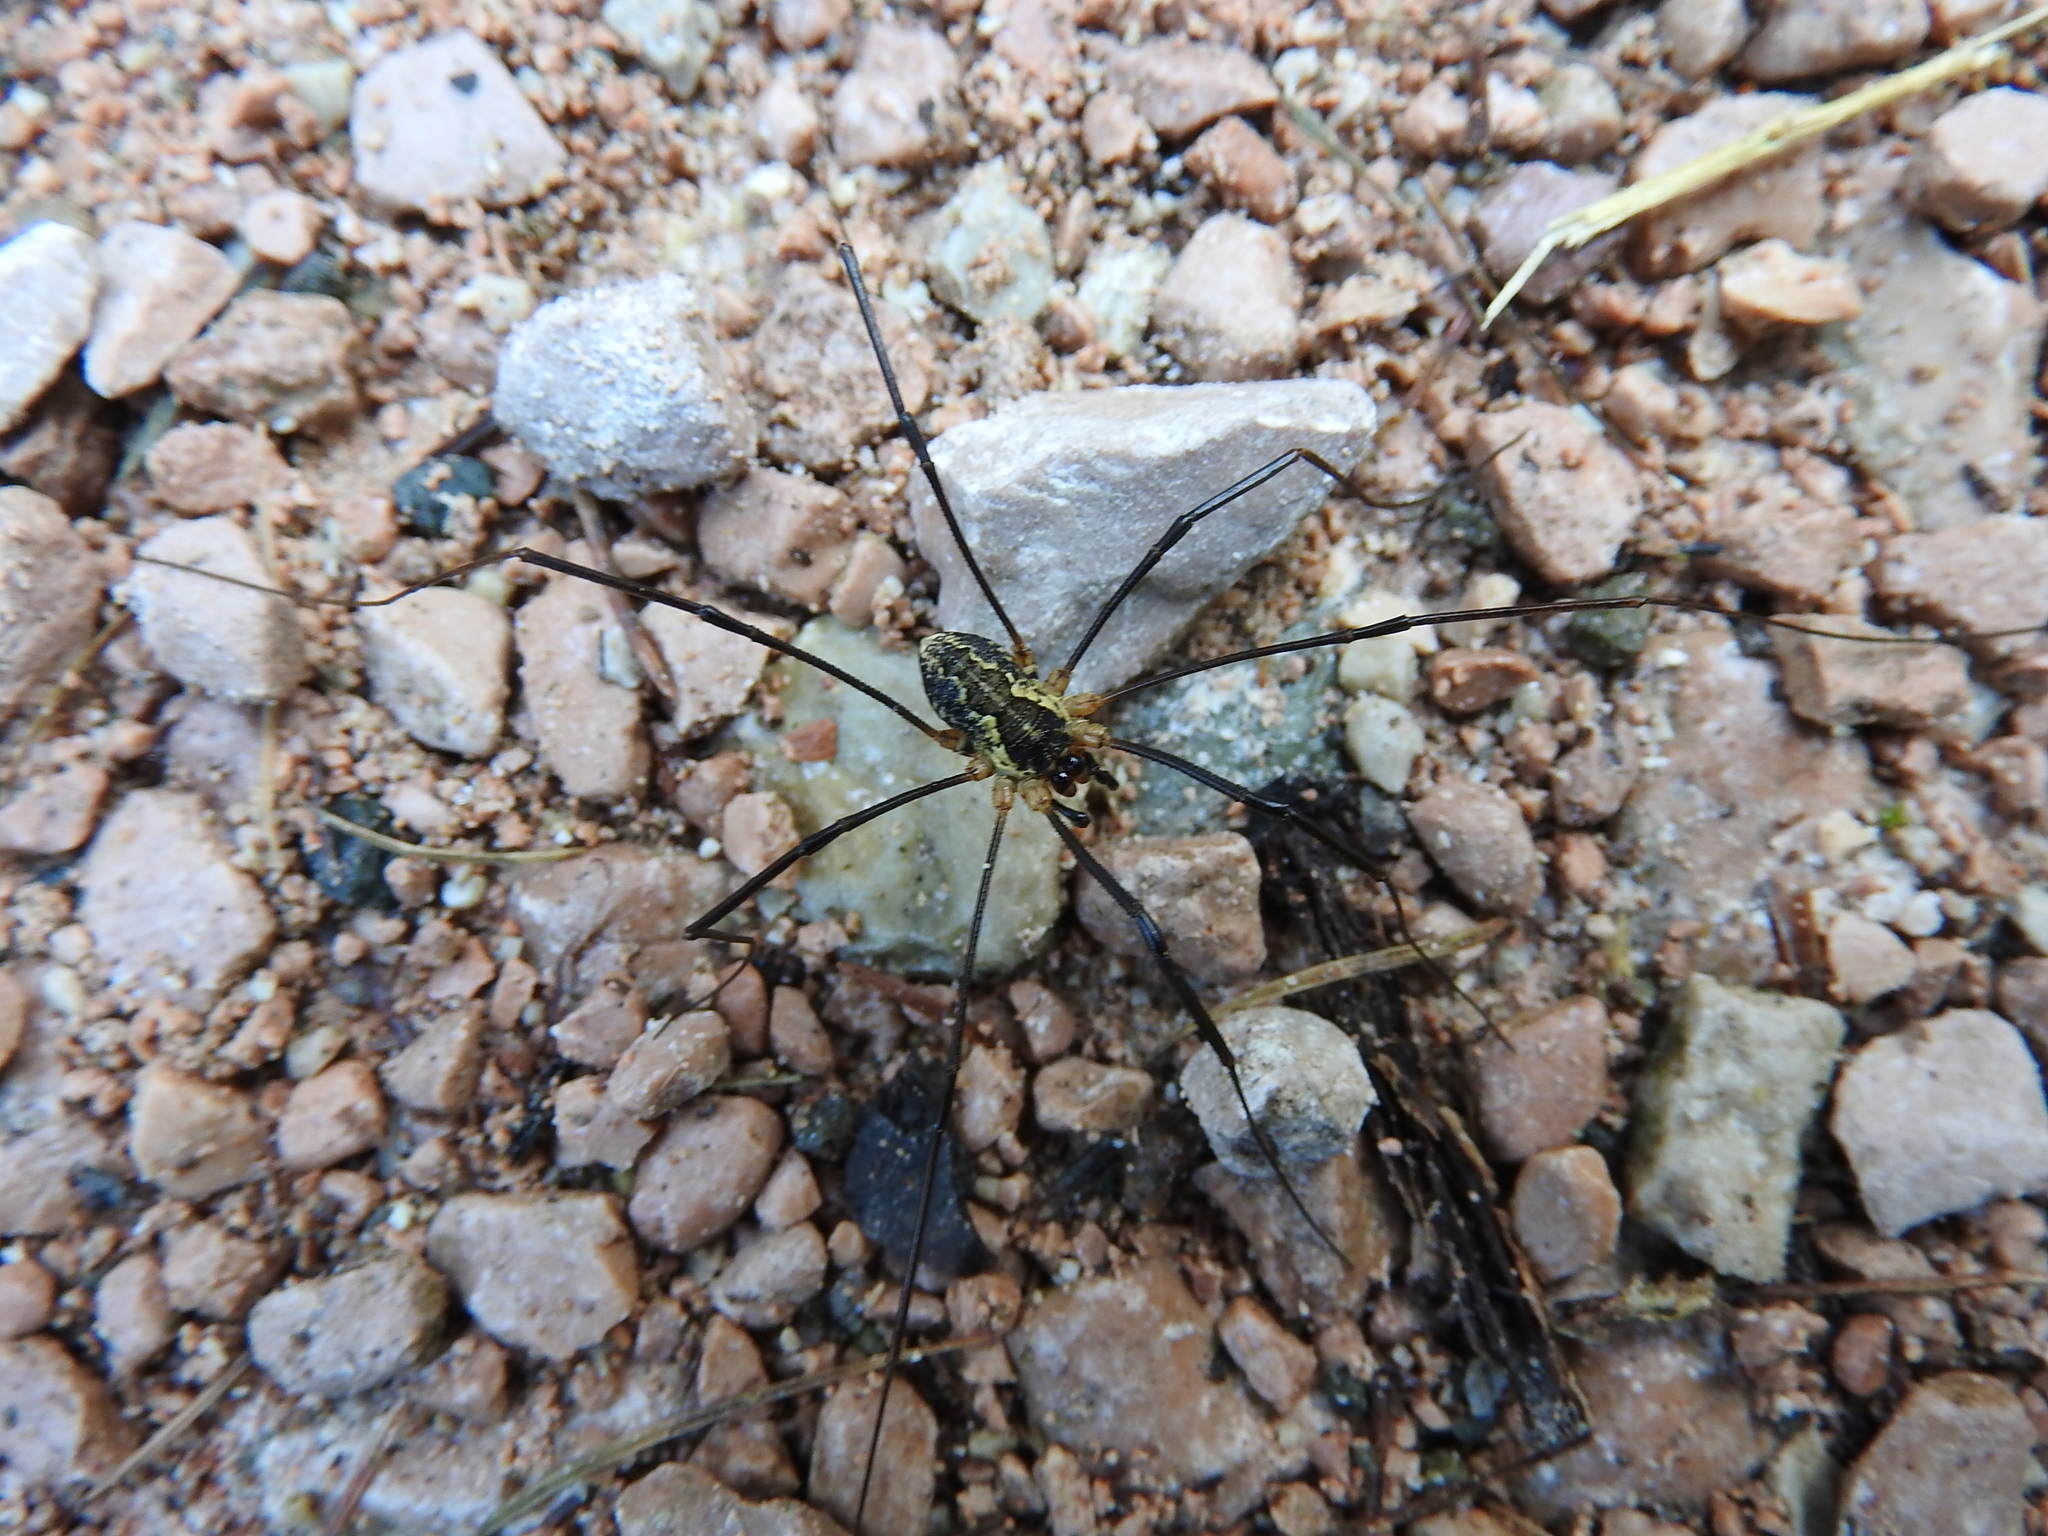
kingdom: Animalia
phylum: Arthropoda
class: Arachnida
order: Opiliones
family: Phalangiidae
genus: Mitopus
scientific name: Mitopus morio
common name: Saddleback harvestman
